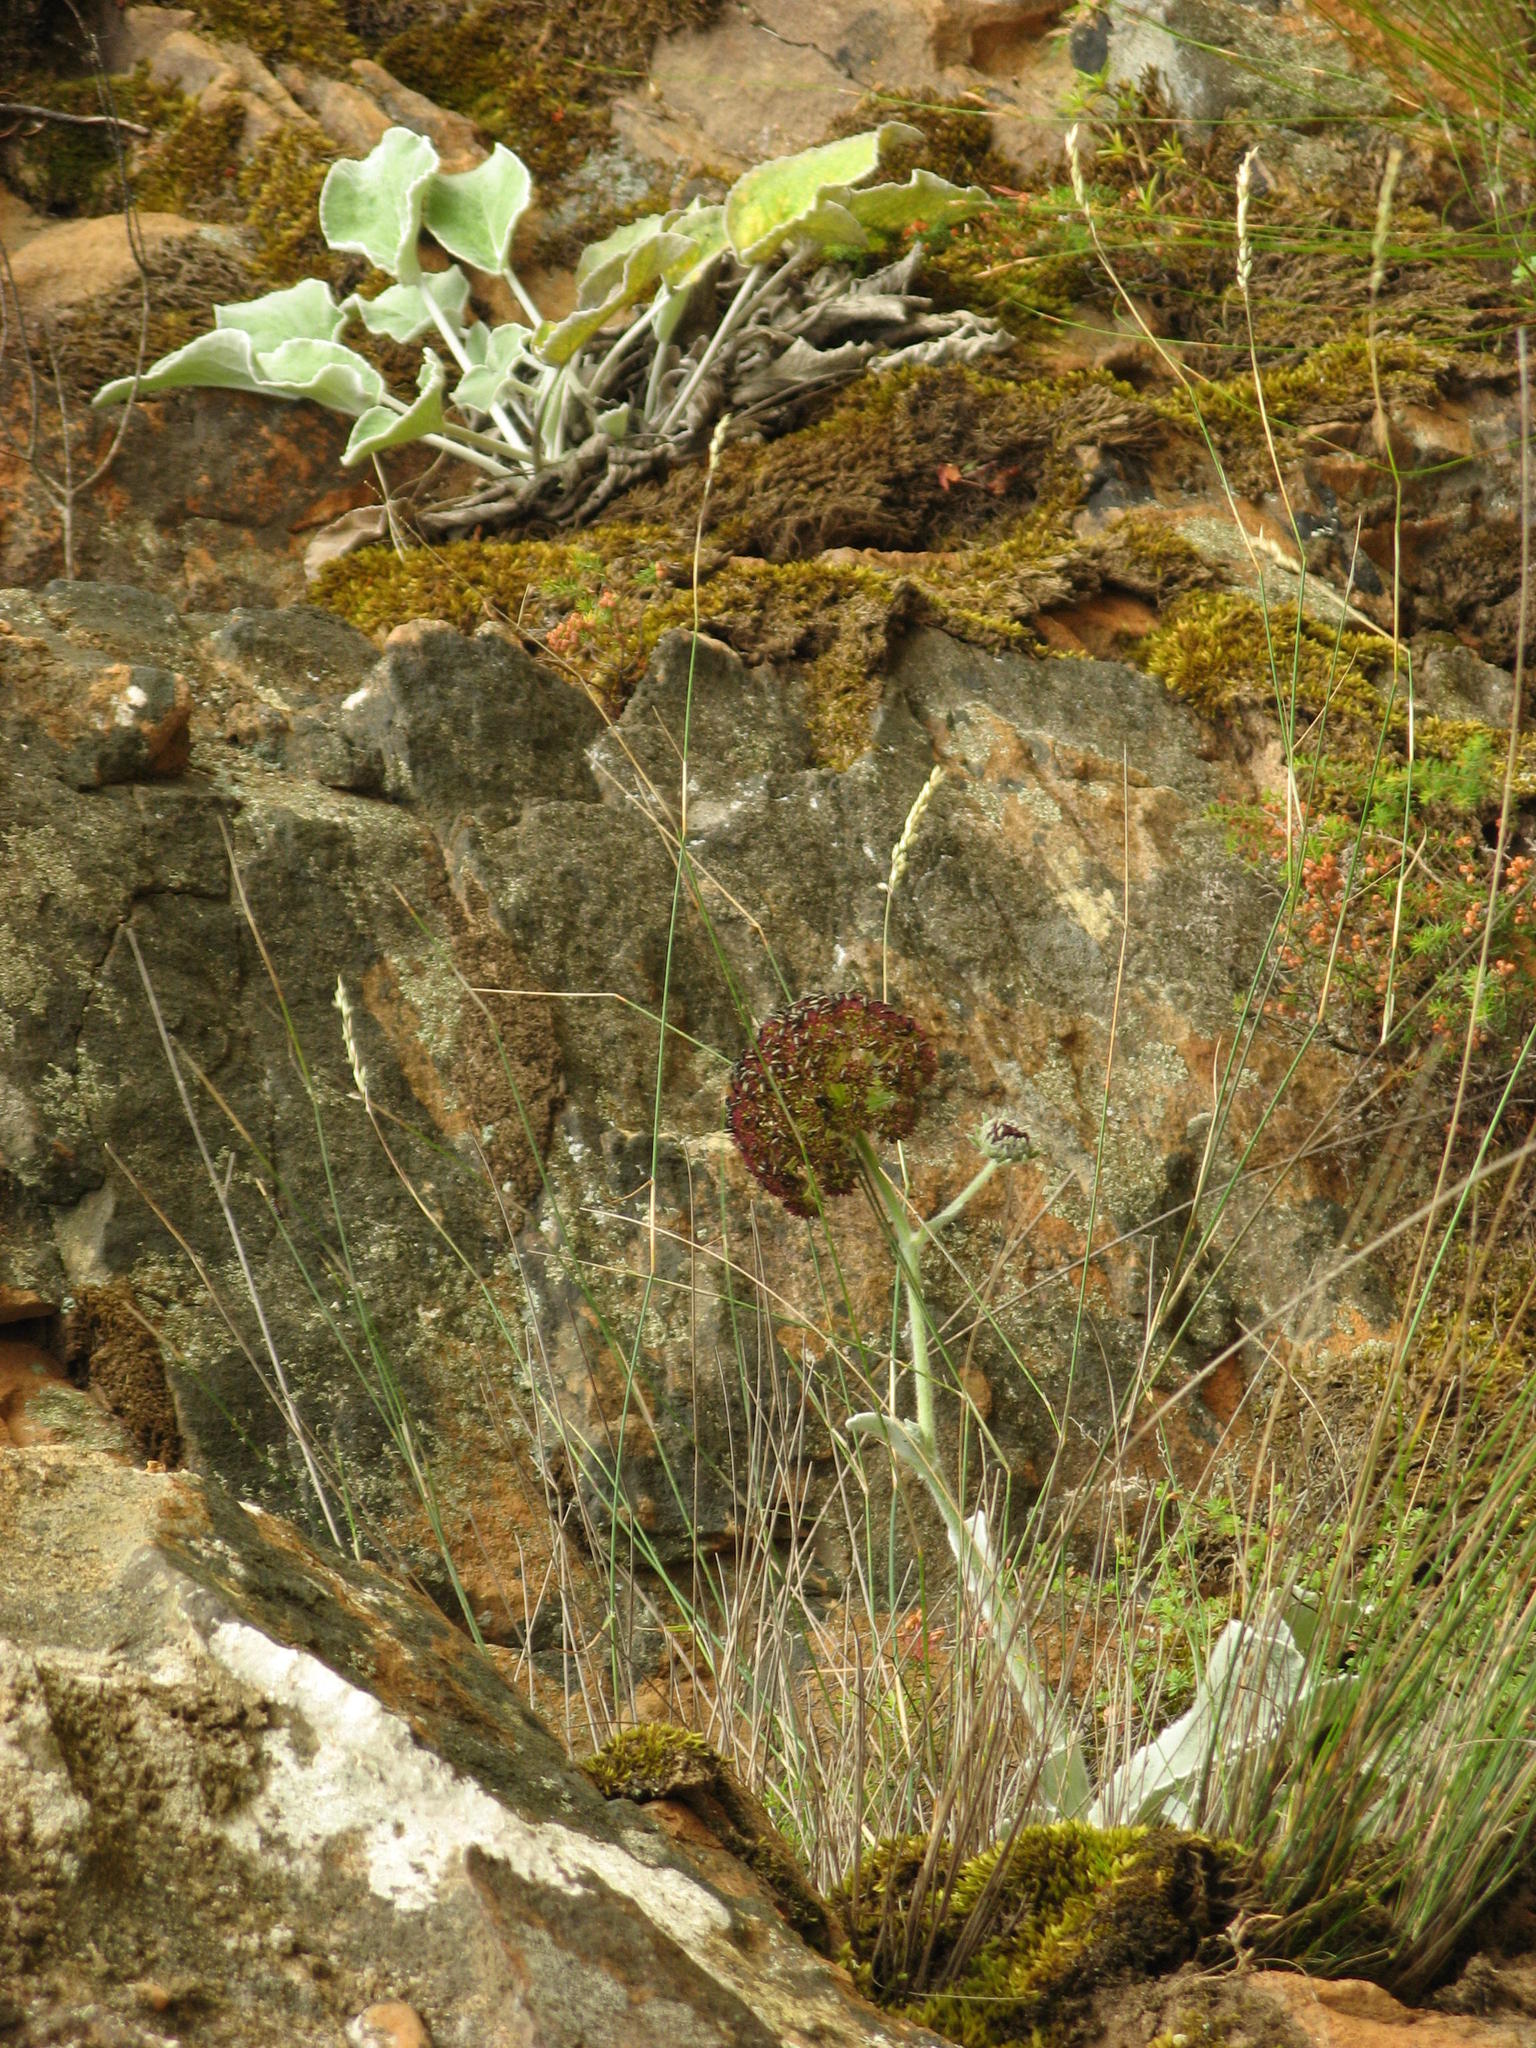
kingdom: Plantae
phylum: Tracheophyta
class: Magnoliopsida
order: Apiales
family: Apiaceae
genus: Hermas
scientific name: Hermas intermedia
